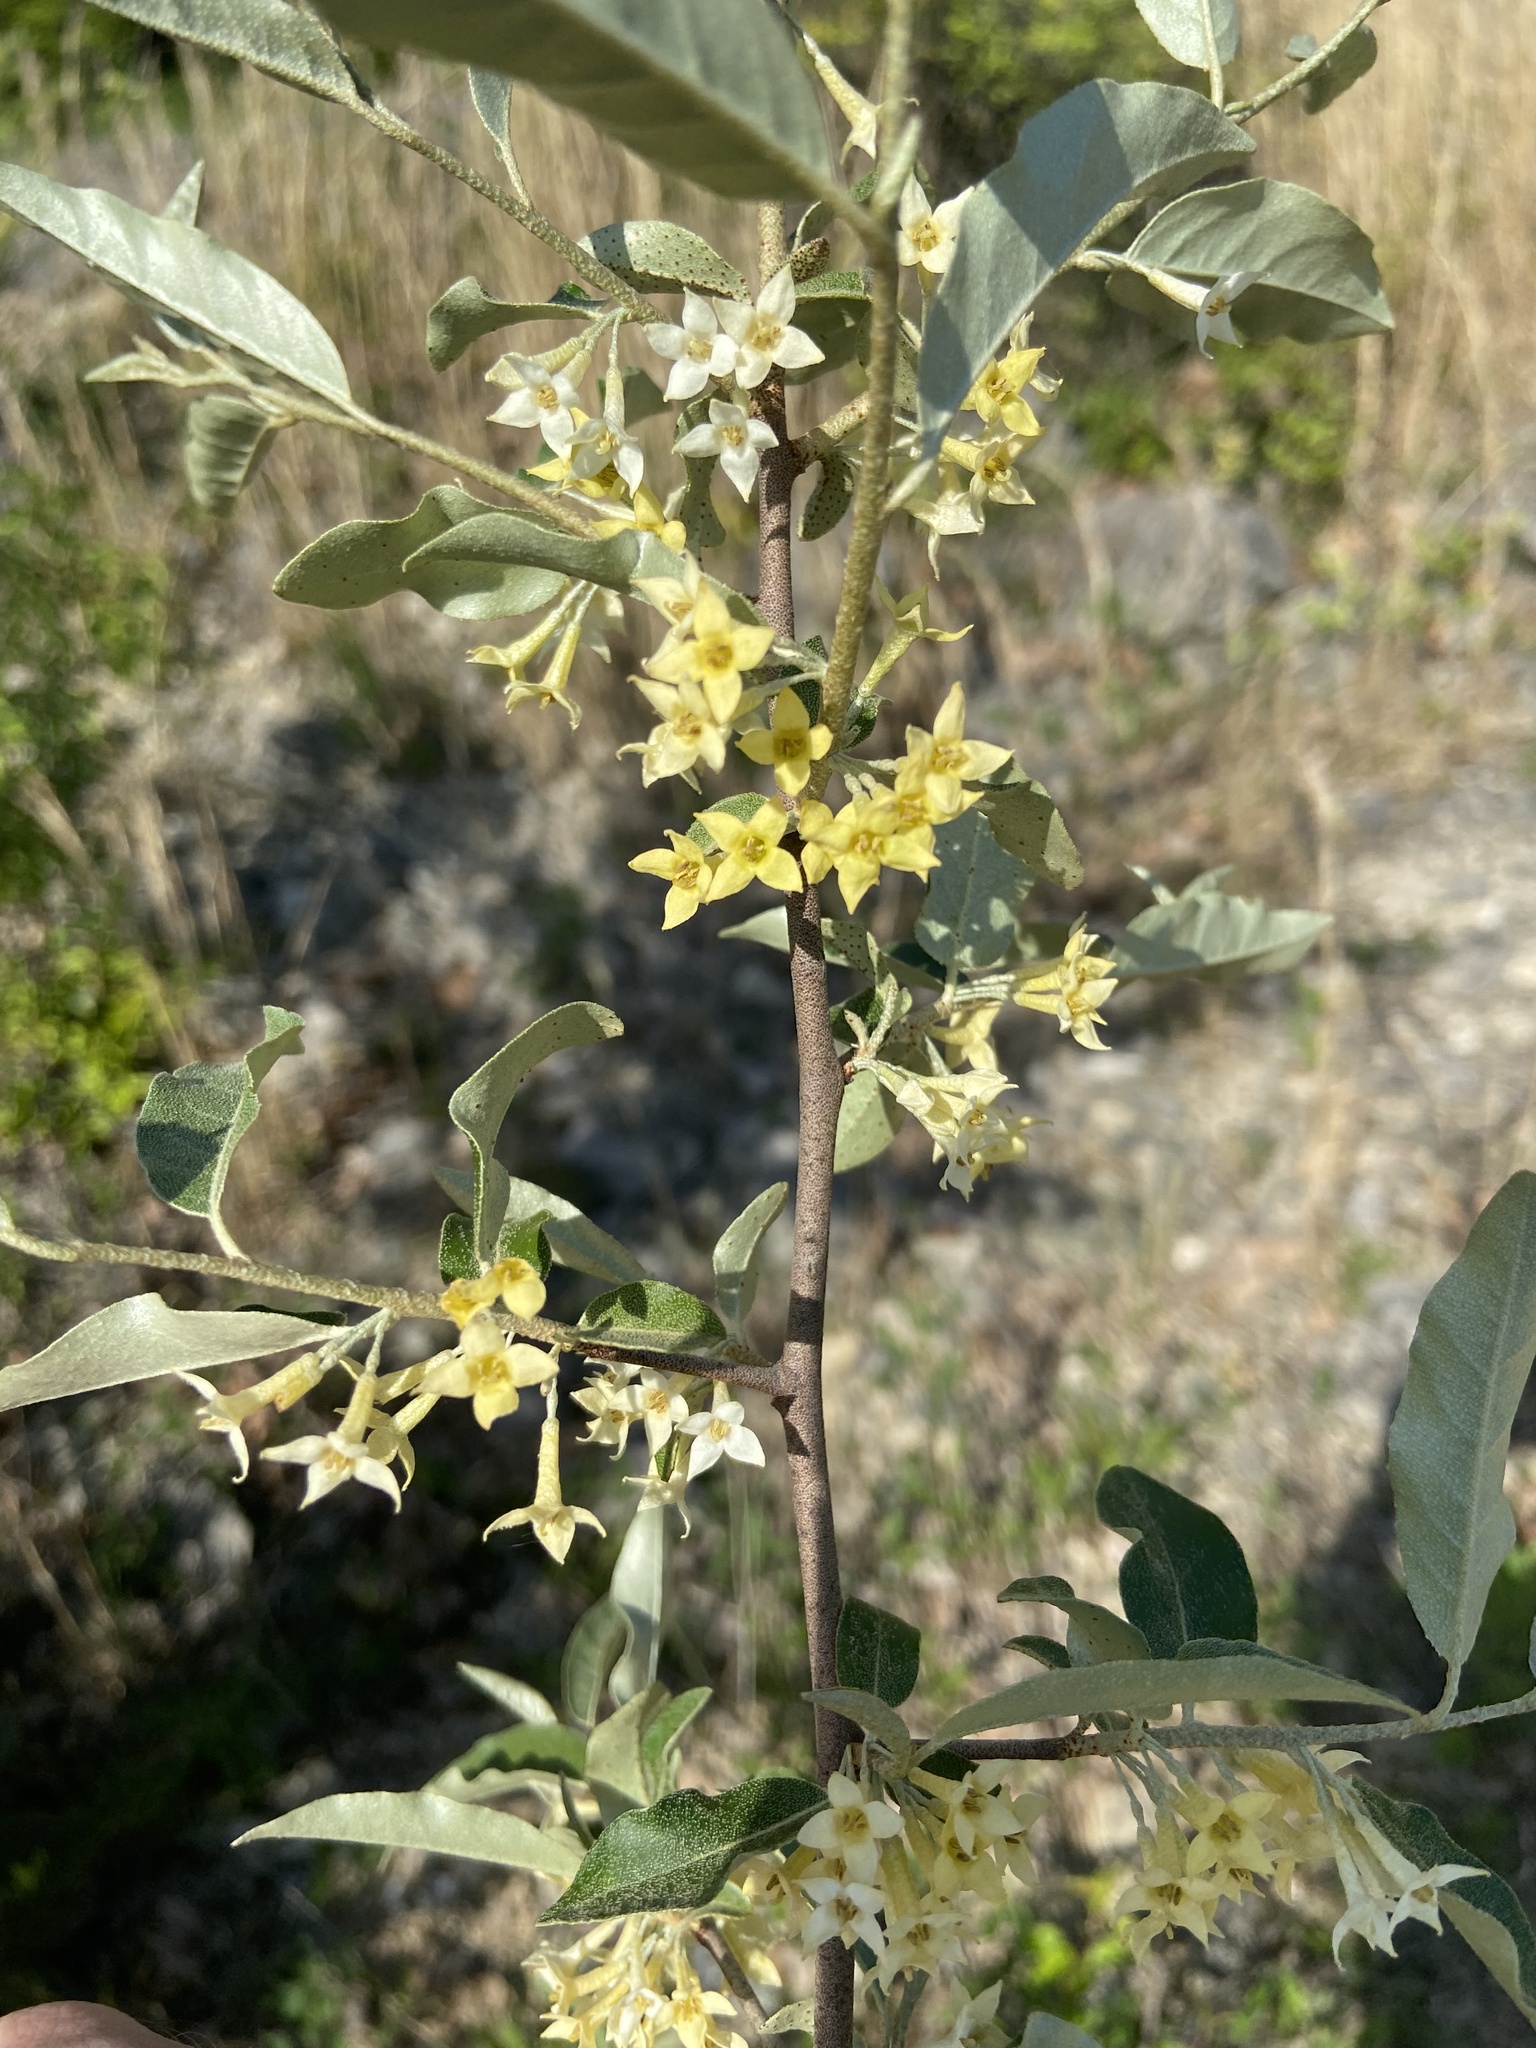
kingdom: Plantae
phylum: Tracheophyta
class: Magnoliopsida
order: Rosales
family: Elaeagnaceae
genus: Elaeagnus
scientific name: Elaeagnus umbellata
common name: Autumn olive
